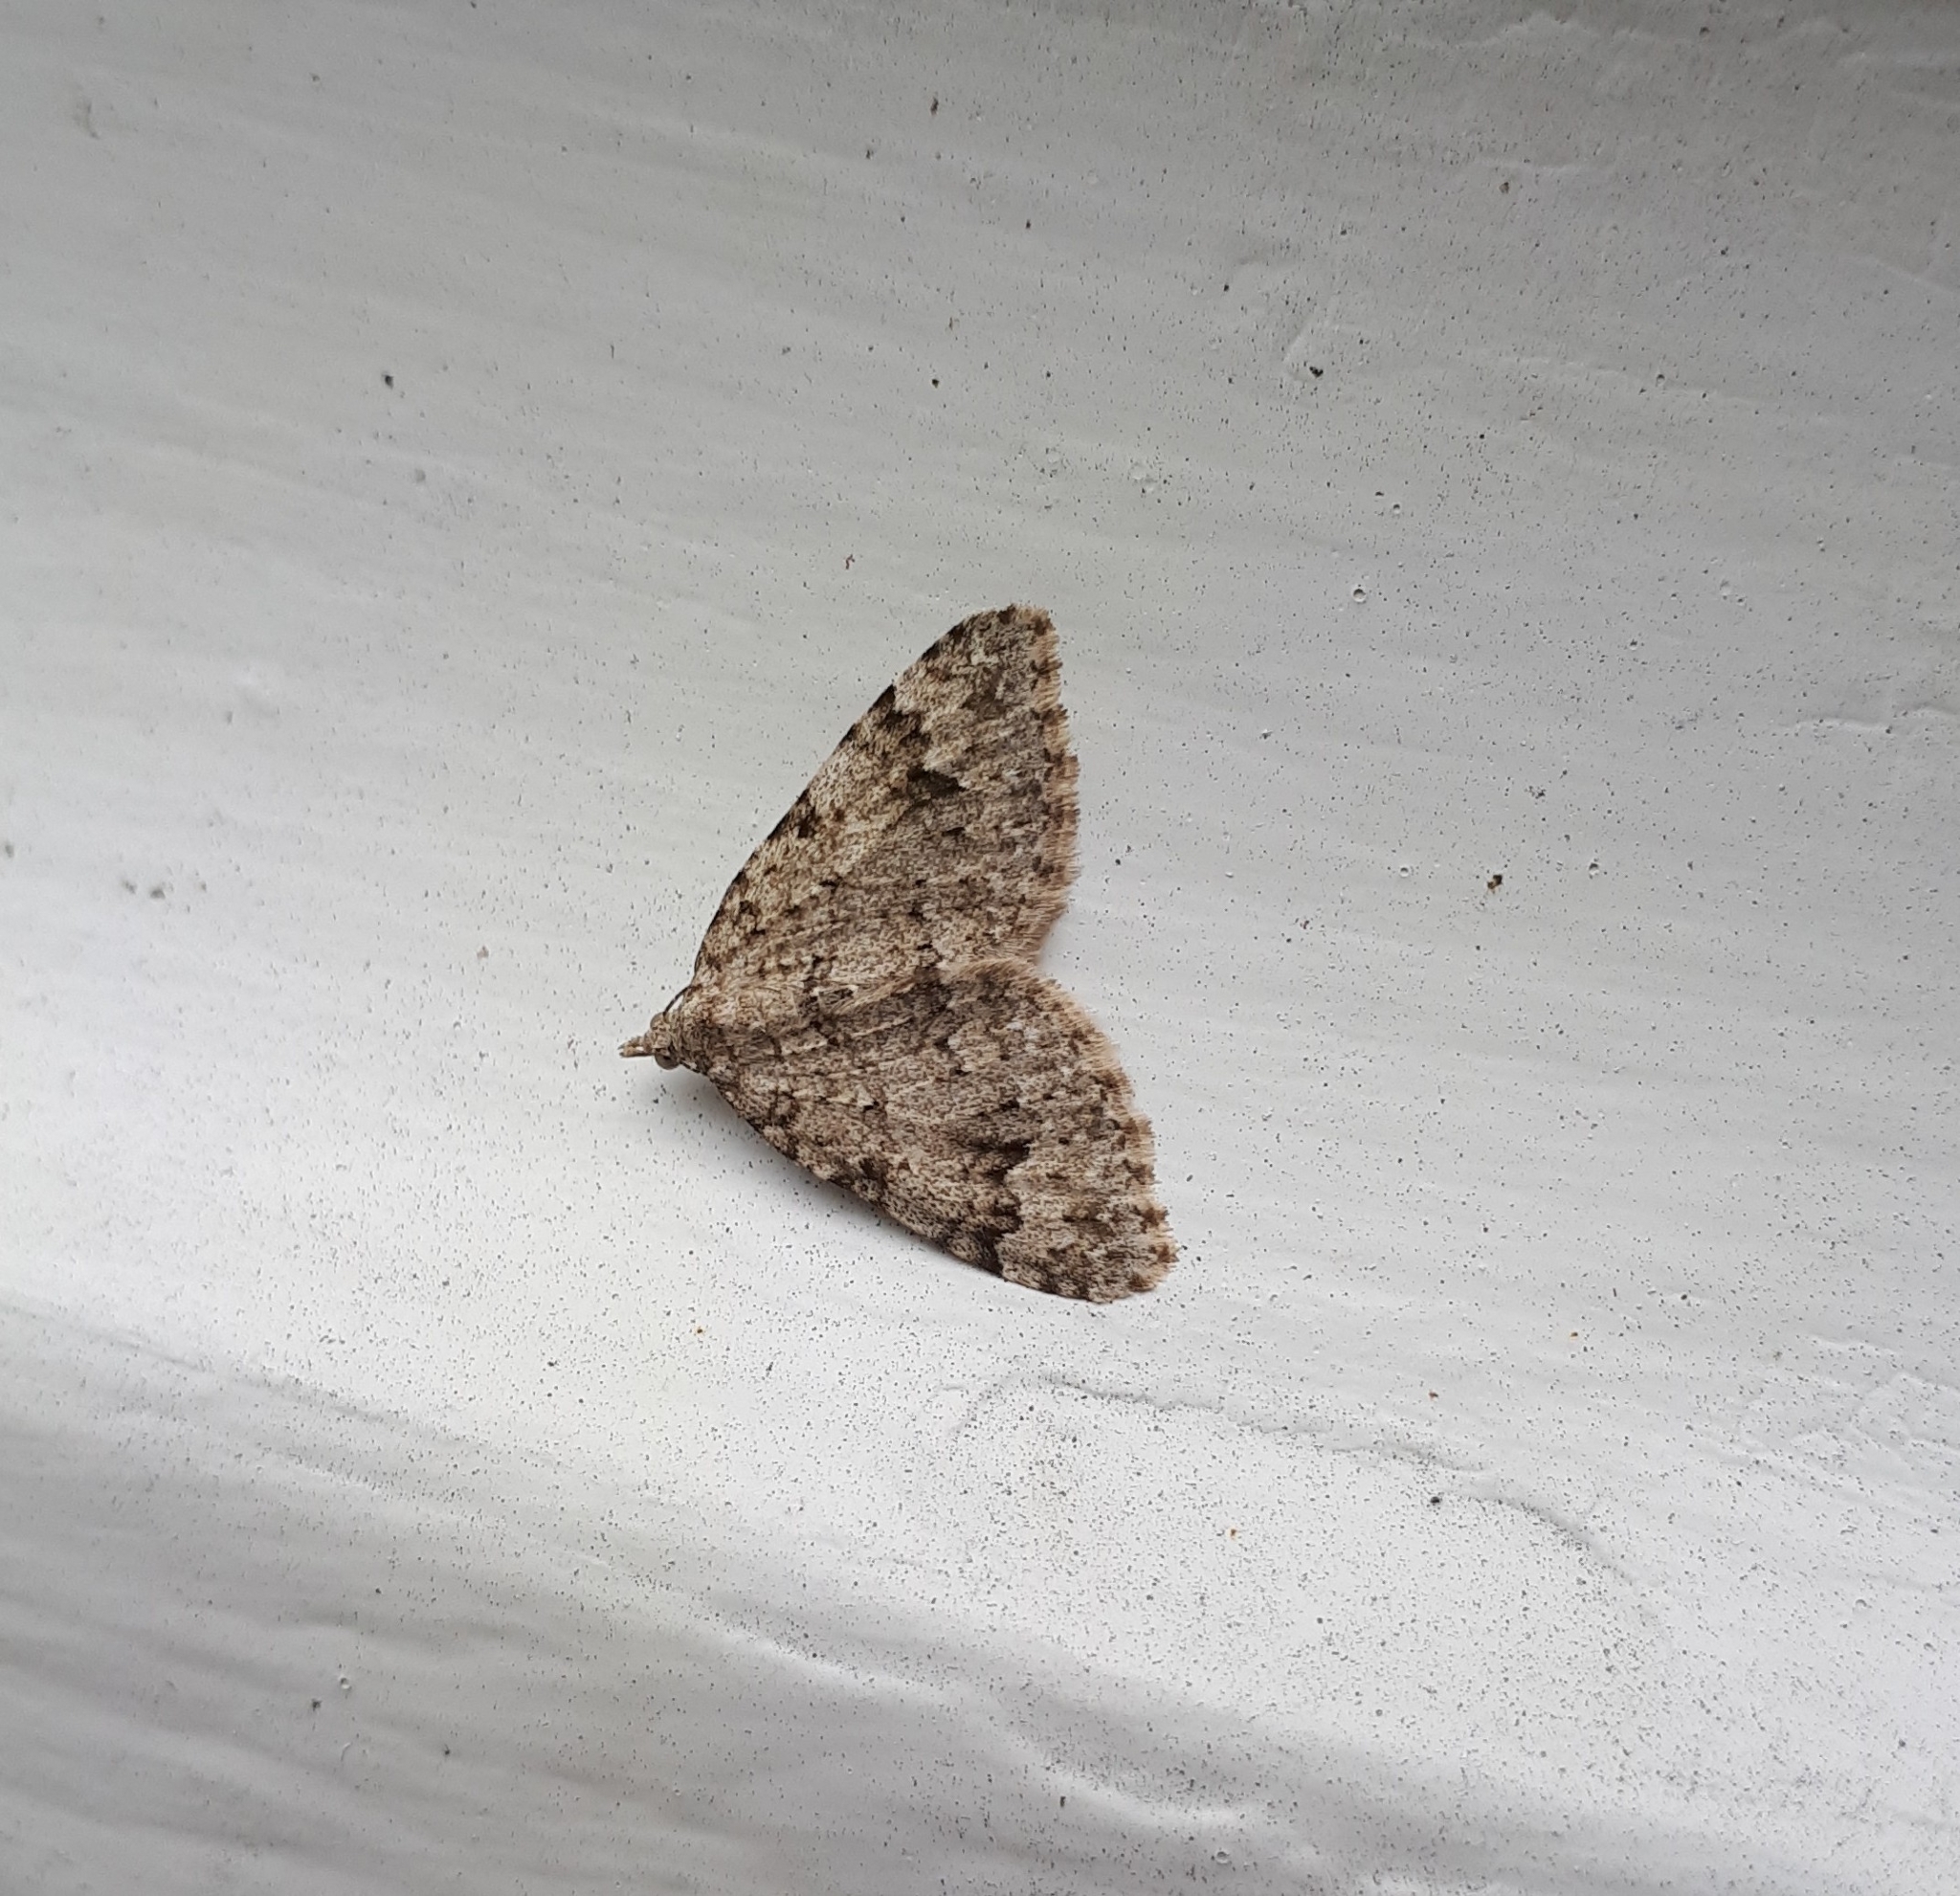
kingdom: Animalia
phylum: Arthropoda
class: Insecta
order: Lepidoptera
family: Geometridae
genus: Helastia
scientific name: Helastia cinerearia
